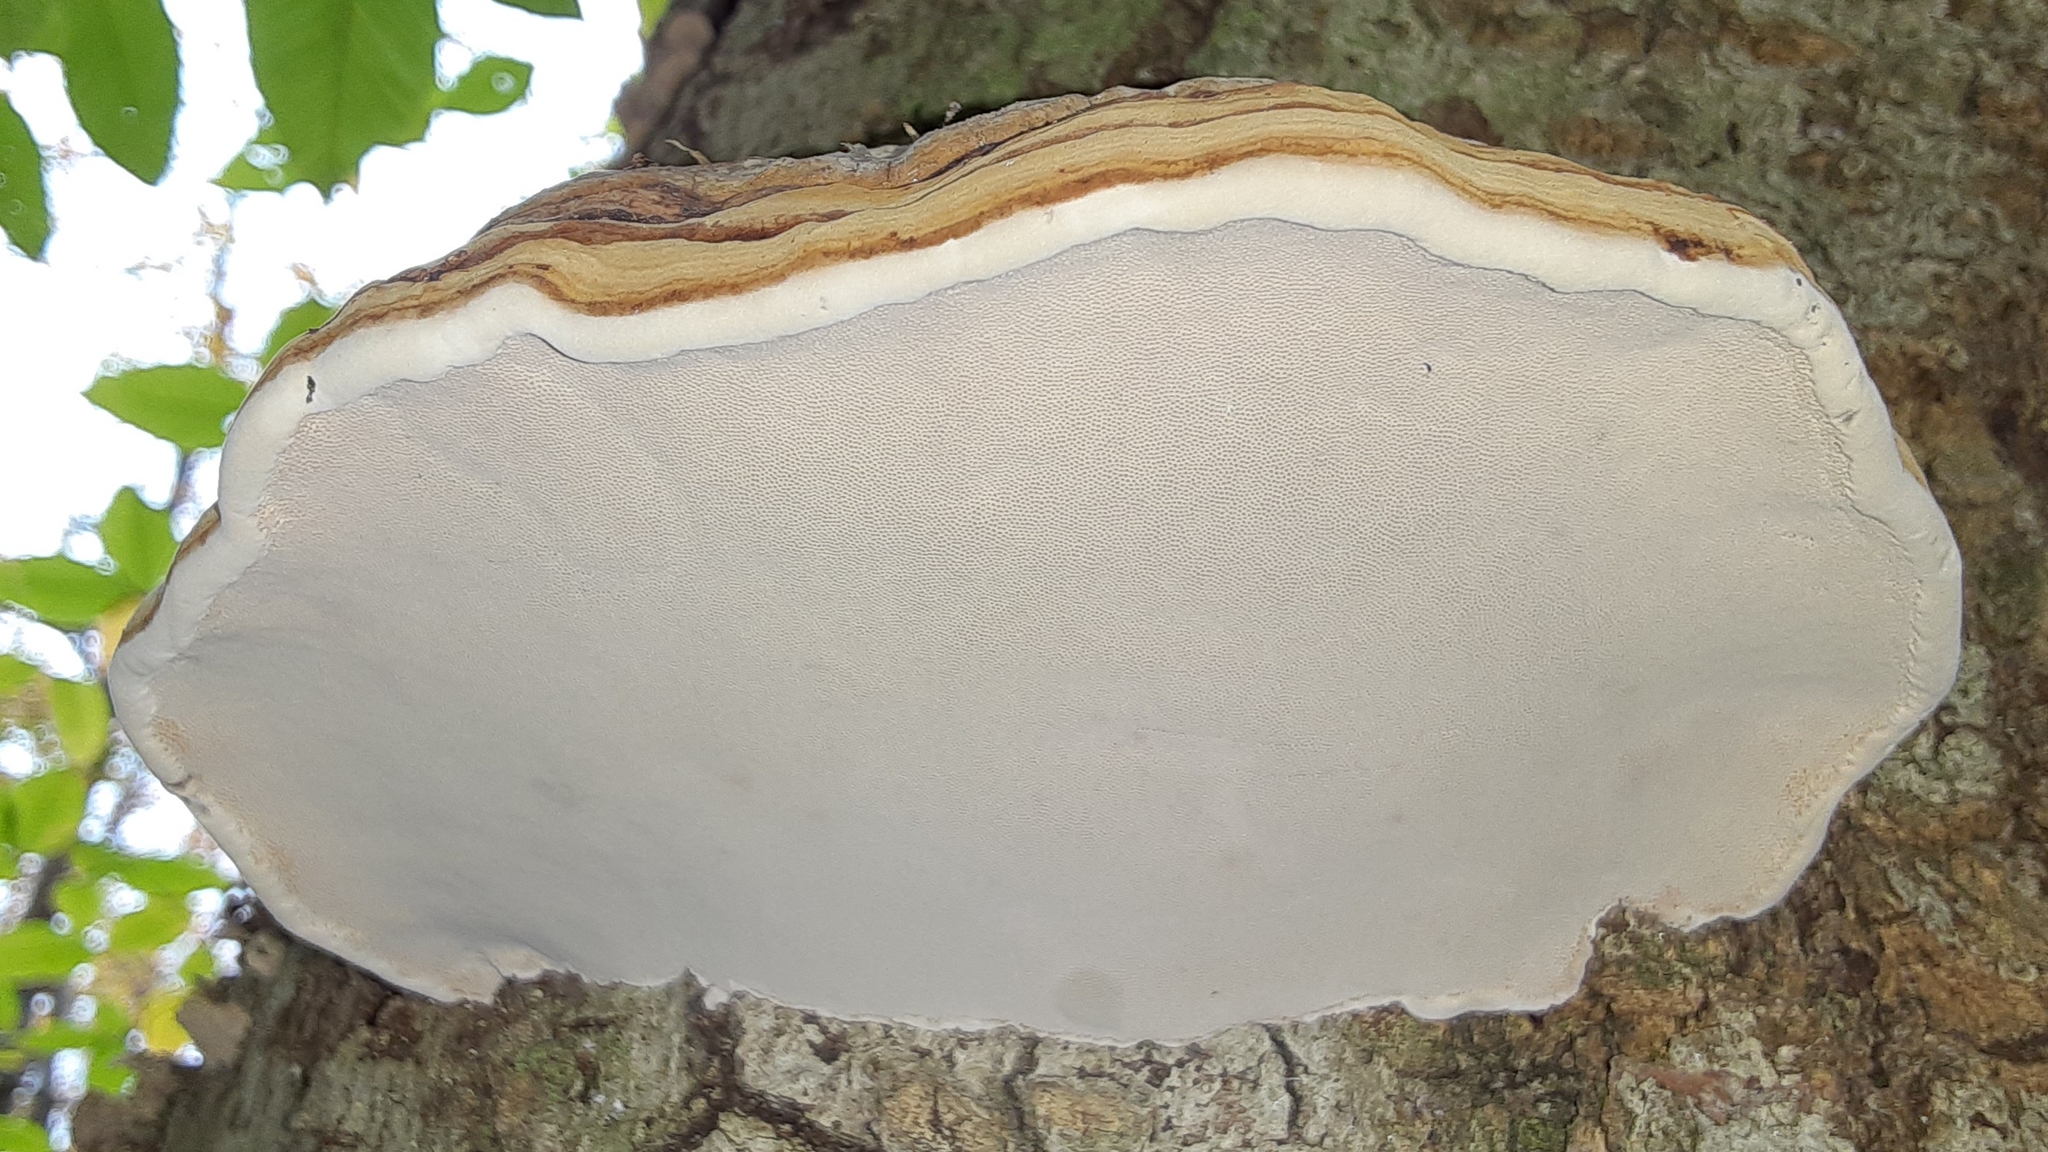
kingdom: Fungi
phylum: Basidiomycota
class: Agaricomycetes
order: Polyporales
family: Polyporaceae
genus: Fomes
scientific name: Fomes fomentarius
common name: Hoof fungus
